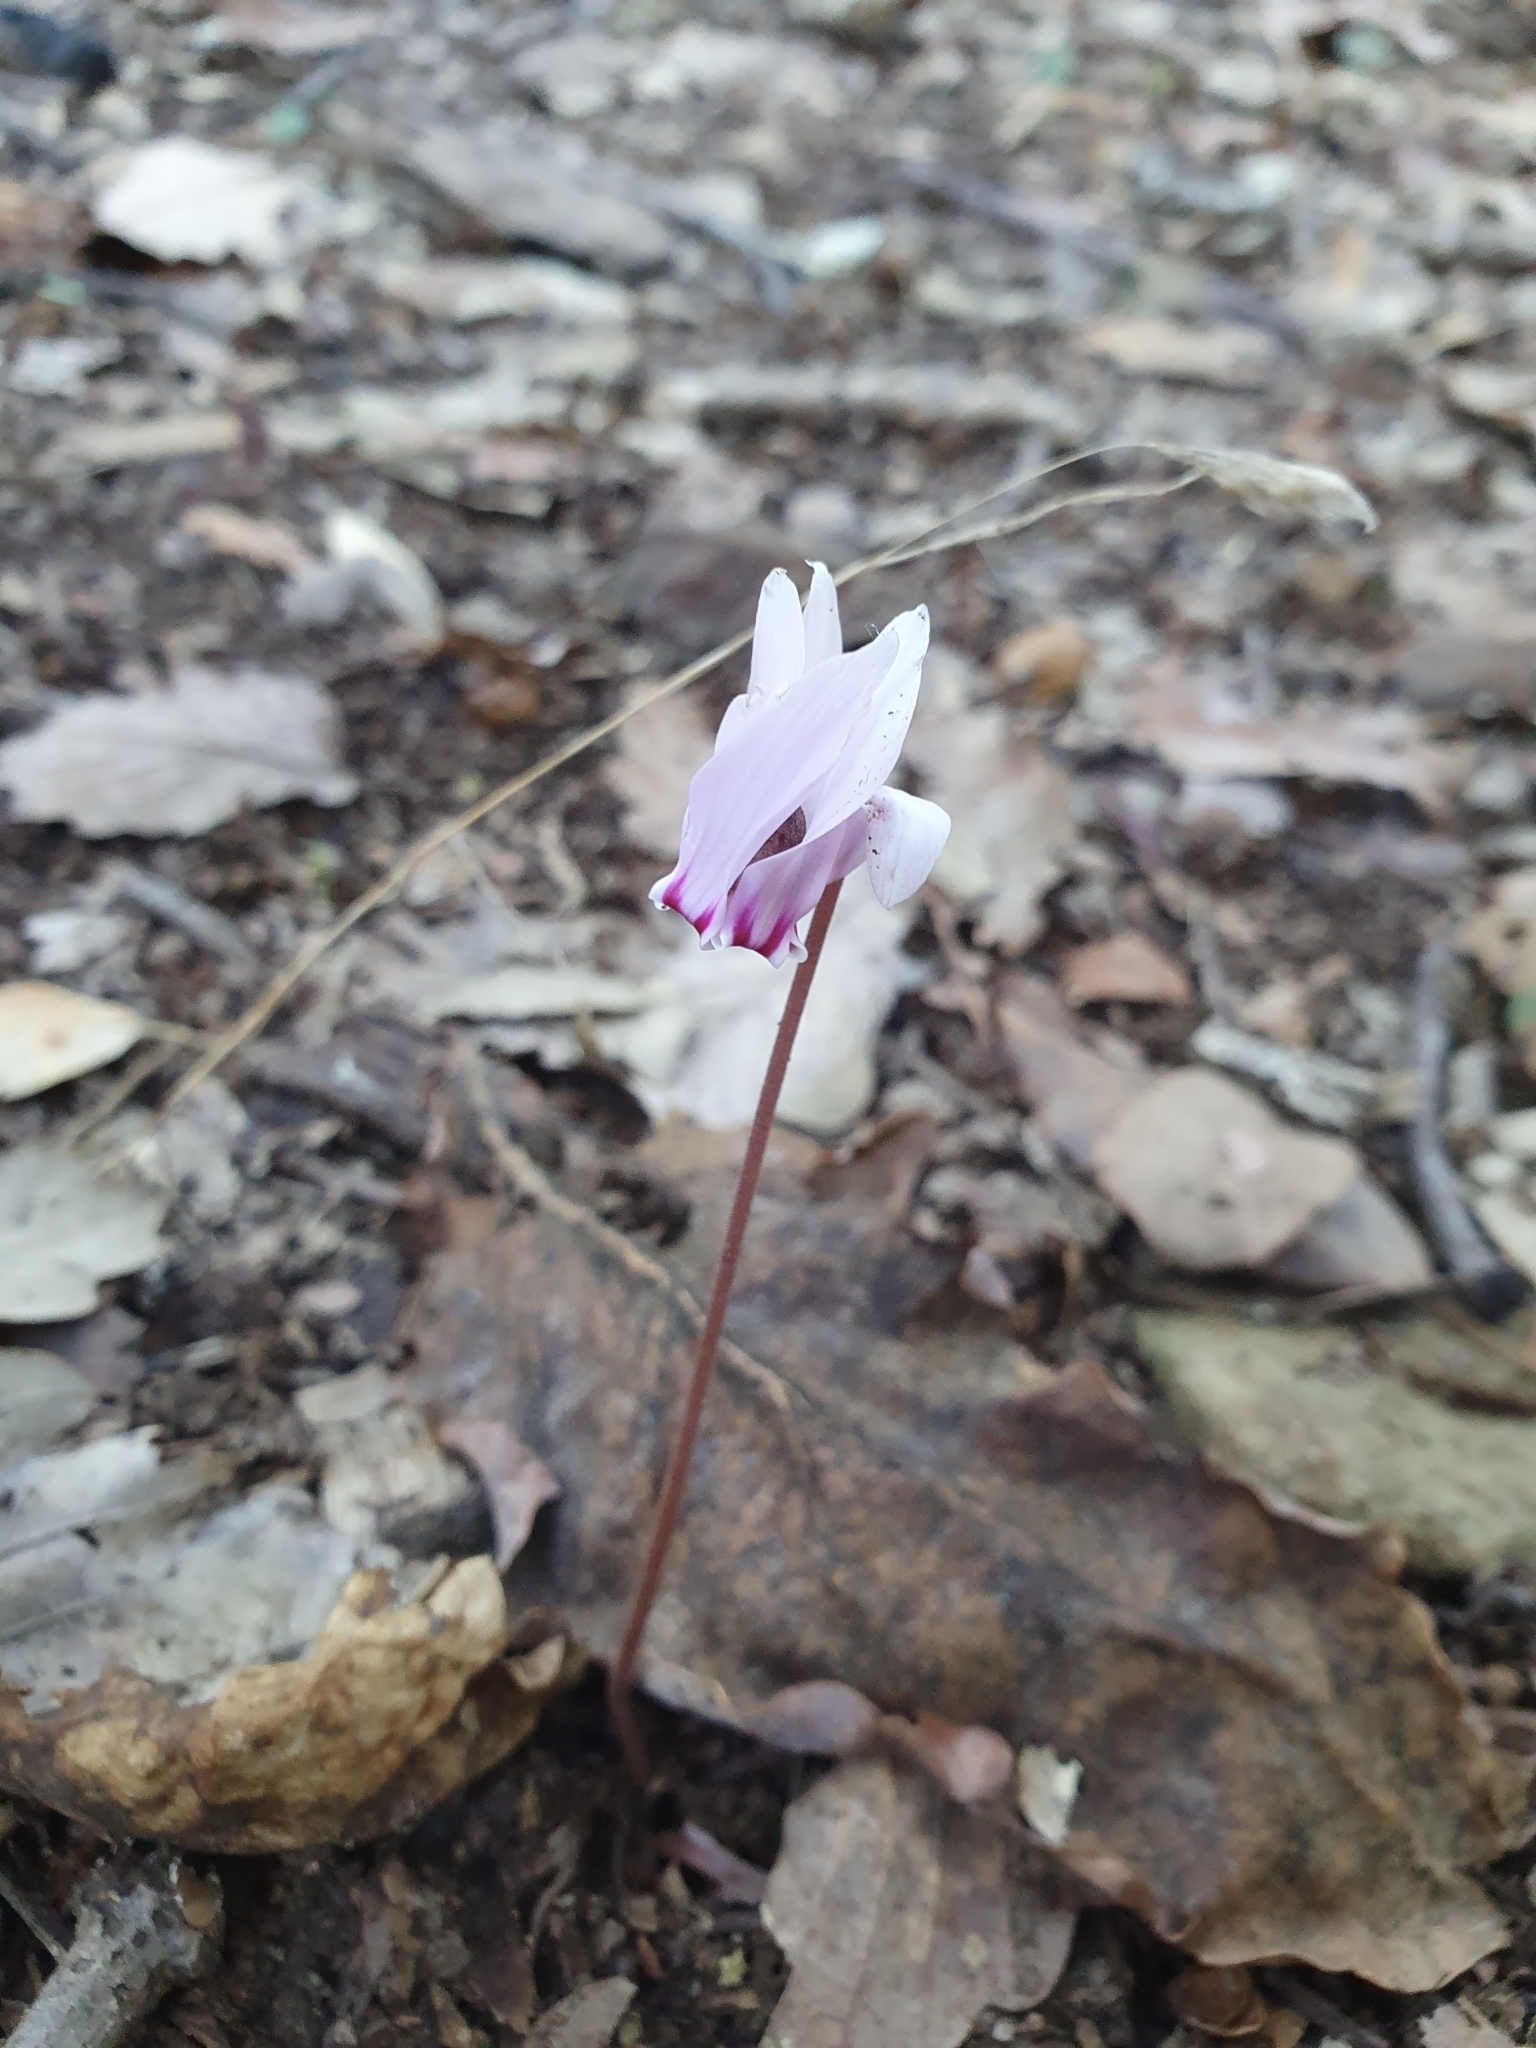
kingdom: Plantae
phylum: Tracheophyta
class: Magnoliopsida
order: Ericales
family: Primulaceae
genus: Cyclamen
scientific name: Cyclamen africanum
